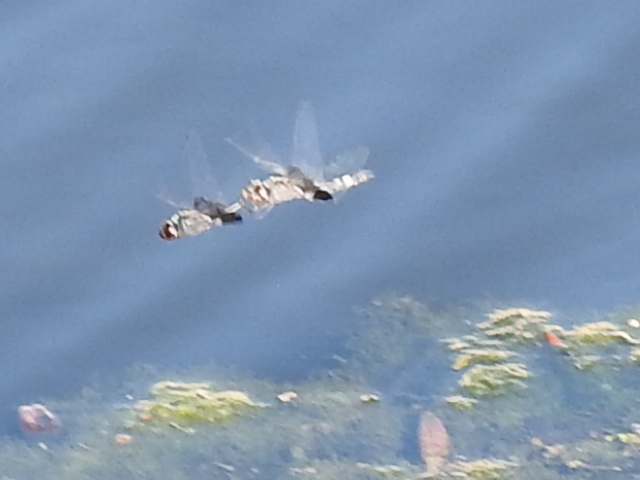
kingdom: Animalia
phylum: Arthropoda
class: Insecta
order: Odonata
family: Libellulidae
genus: Tramea
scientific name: Tramea lacerata
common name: Black saddlebags
